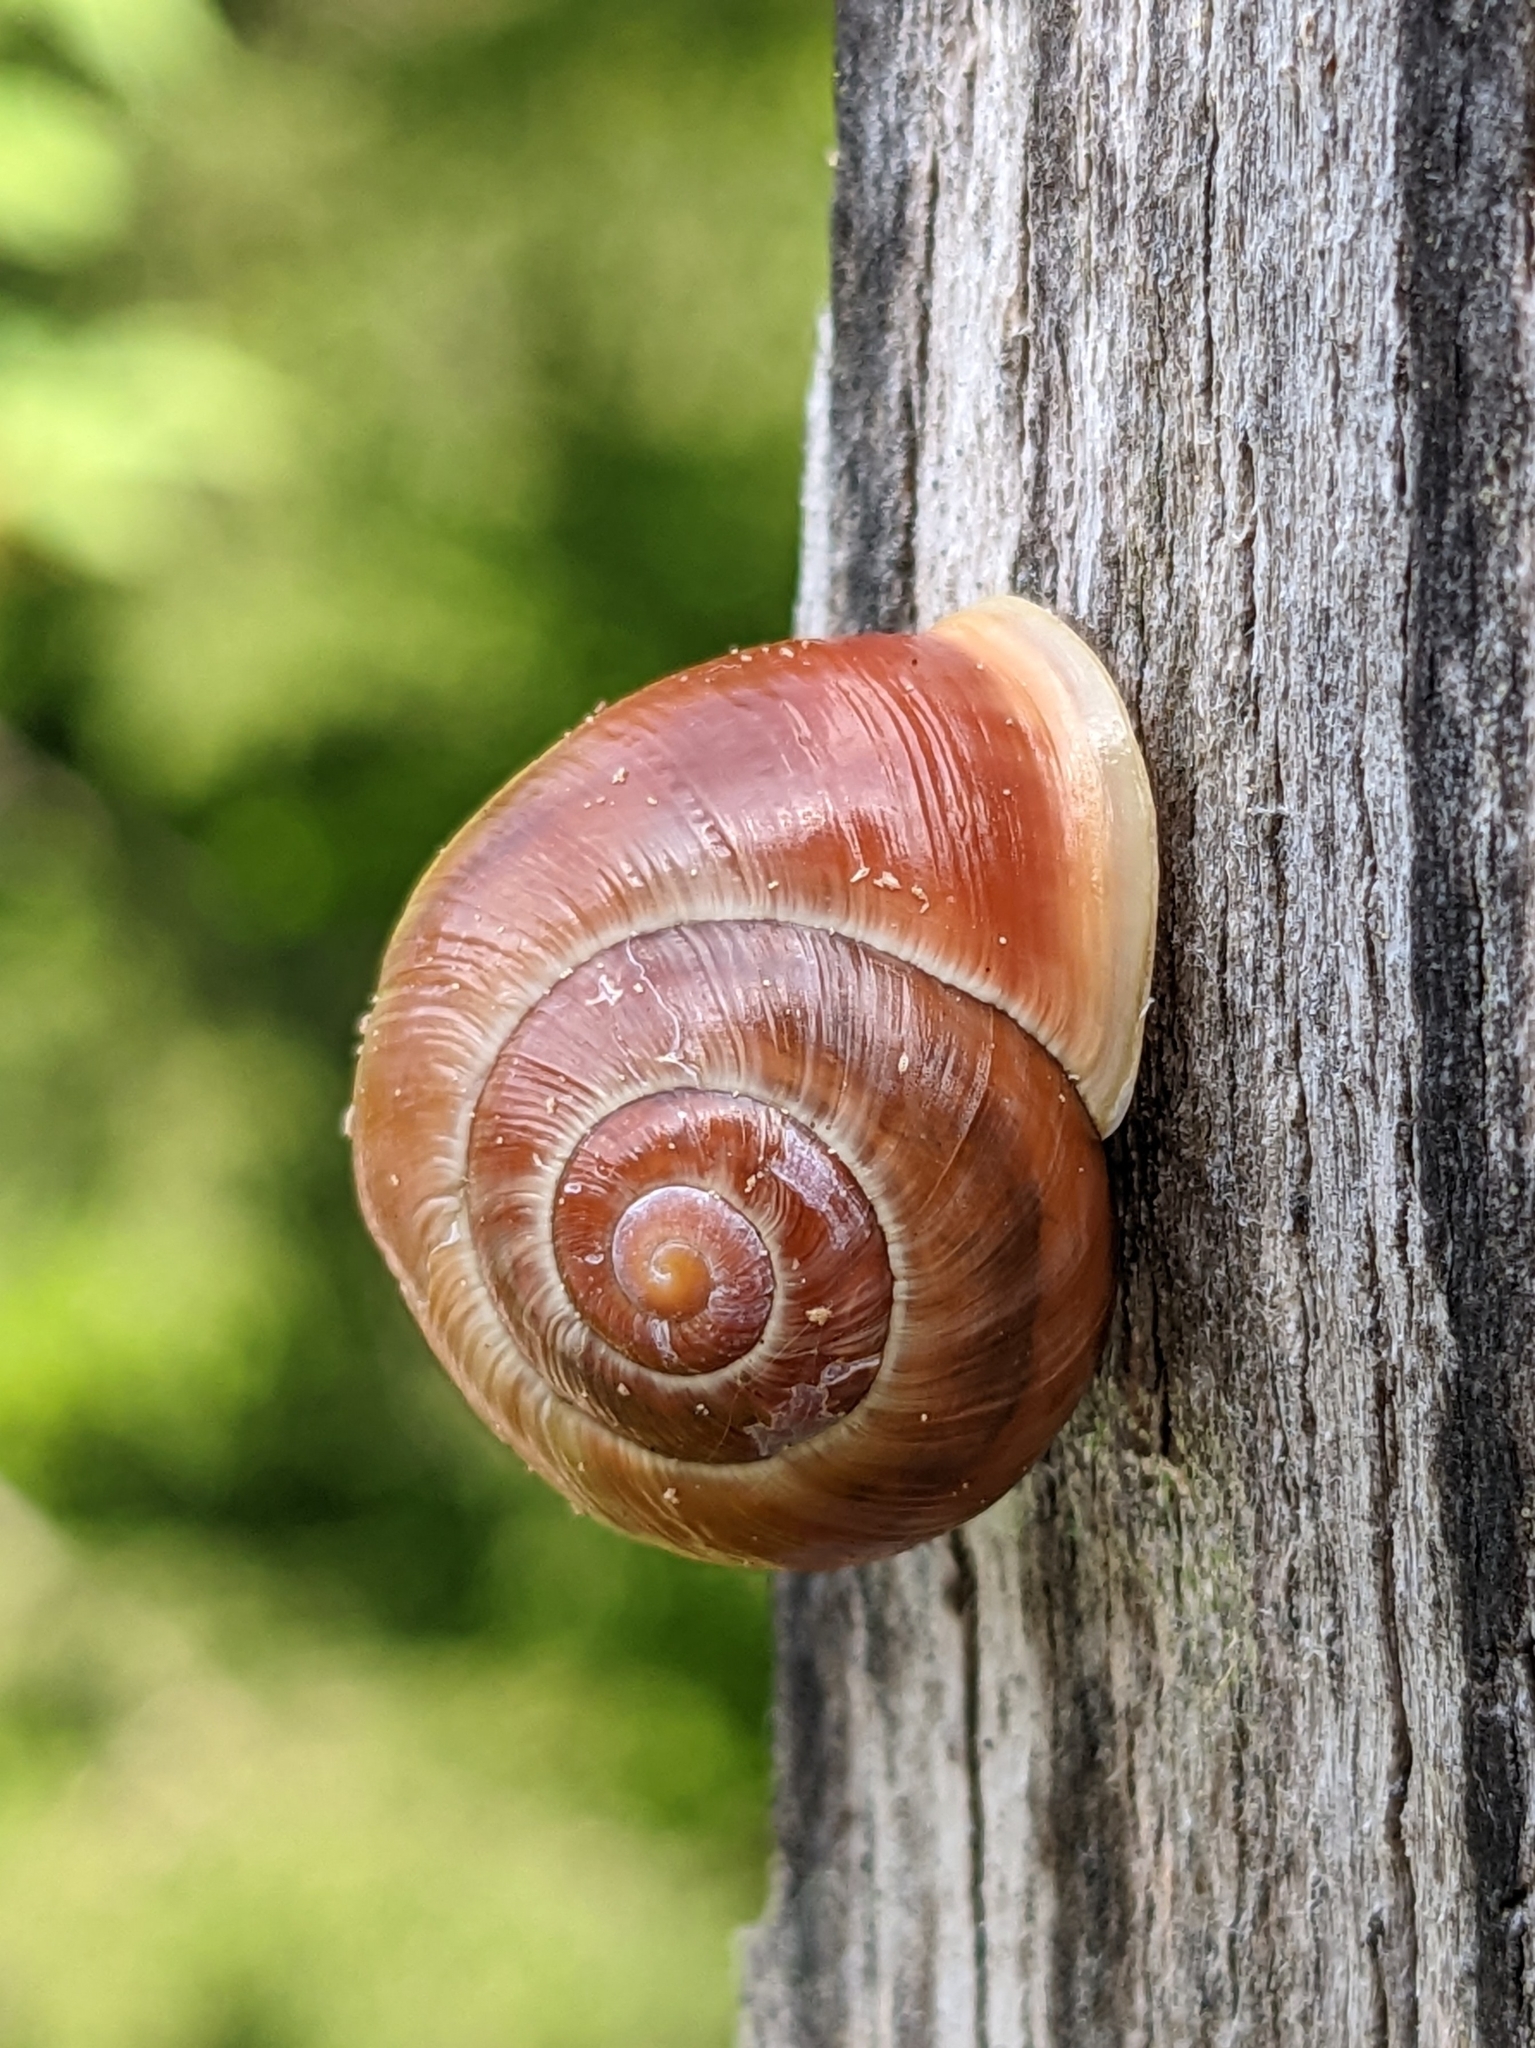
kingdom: Animalia
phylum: Mollusca
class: Gastropoda
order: Stylommatophora
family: Helicidae
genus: Cepaea
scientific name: Cepaea hortensis
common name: White-lip gardensnail
